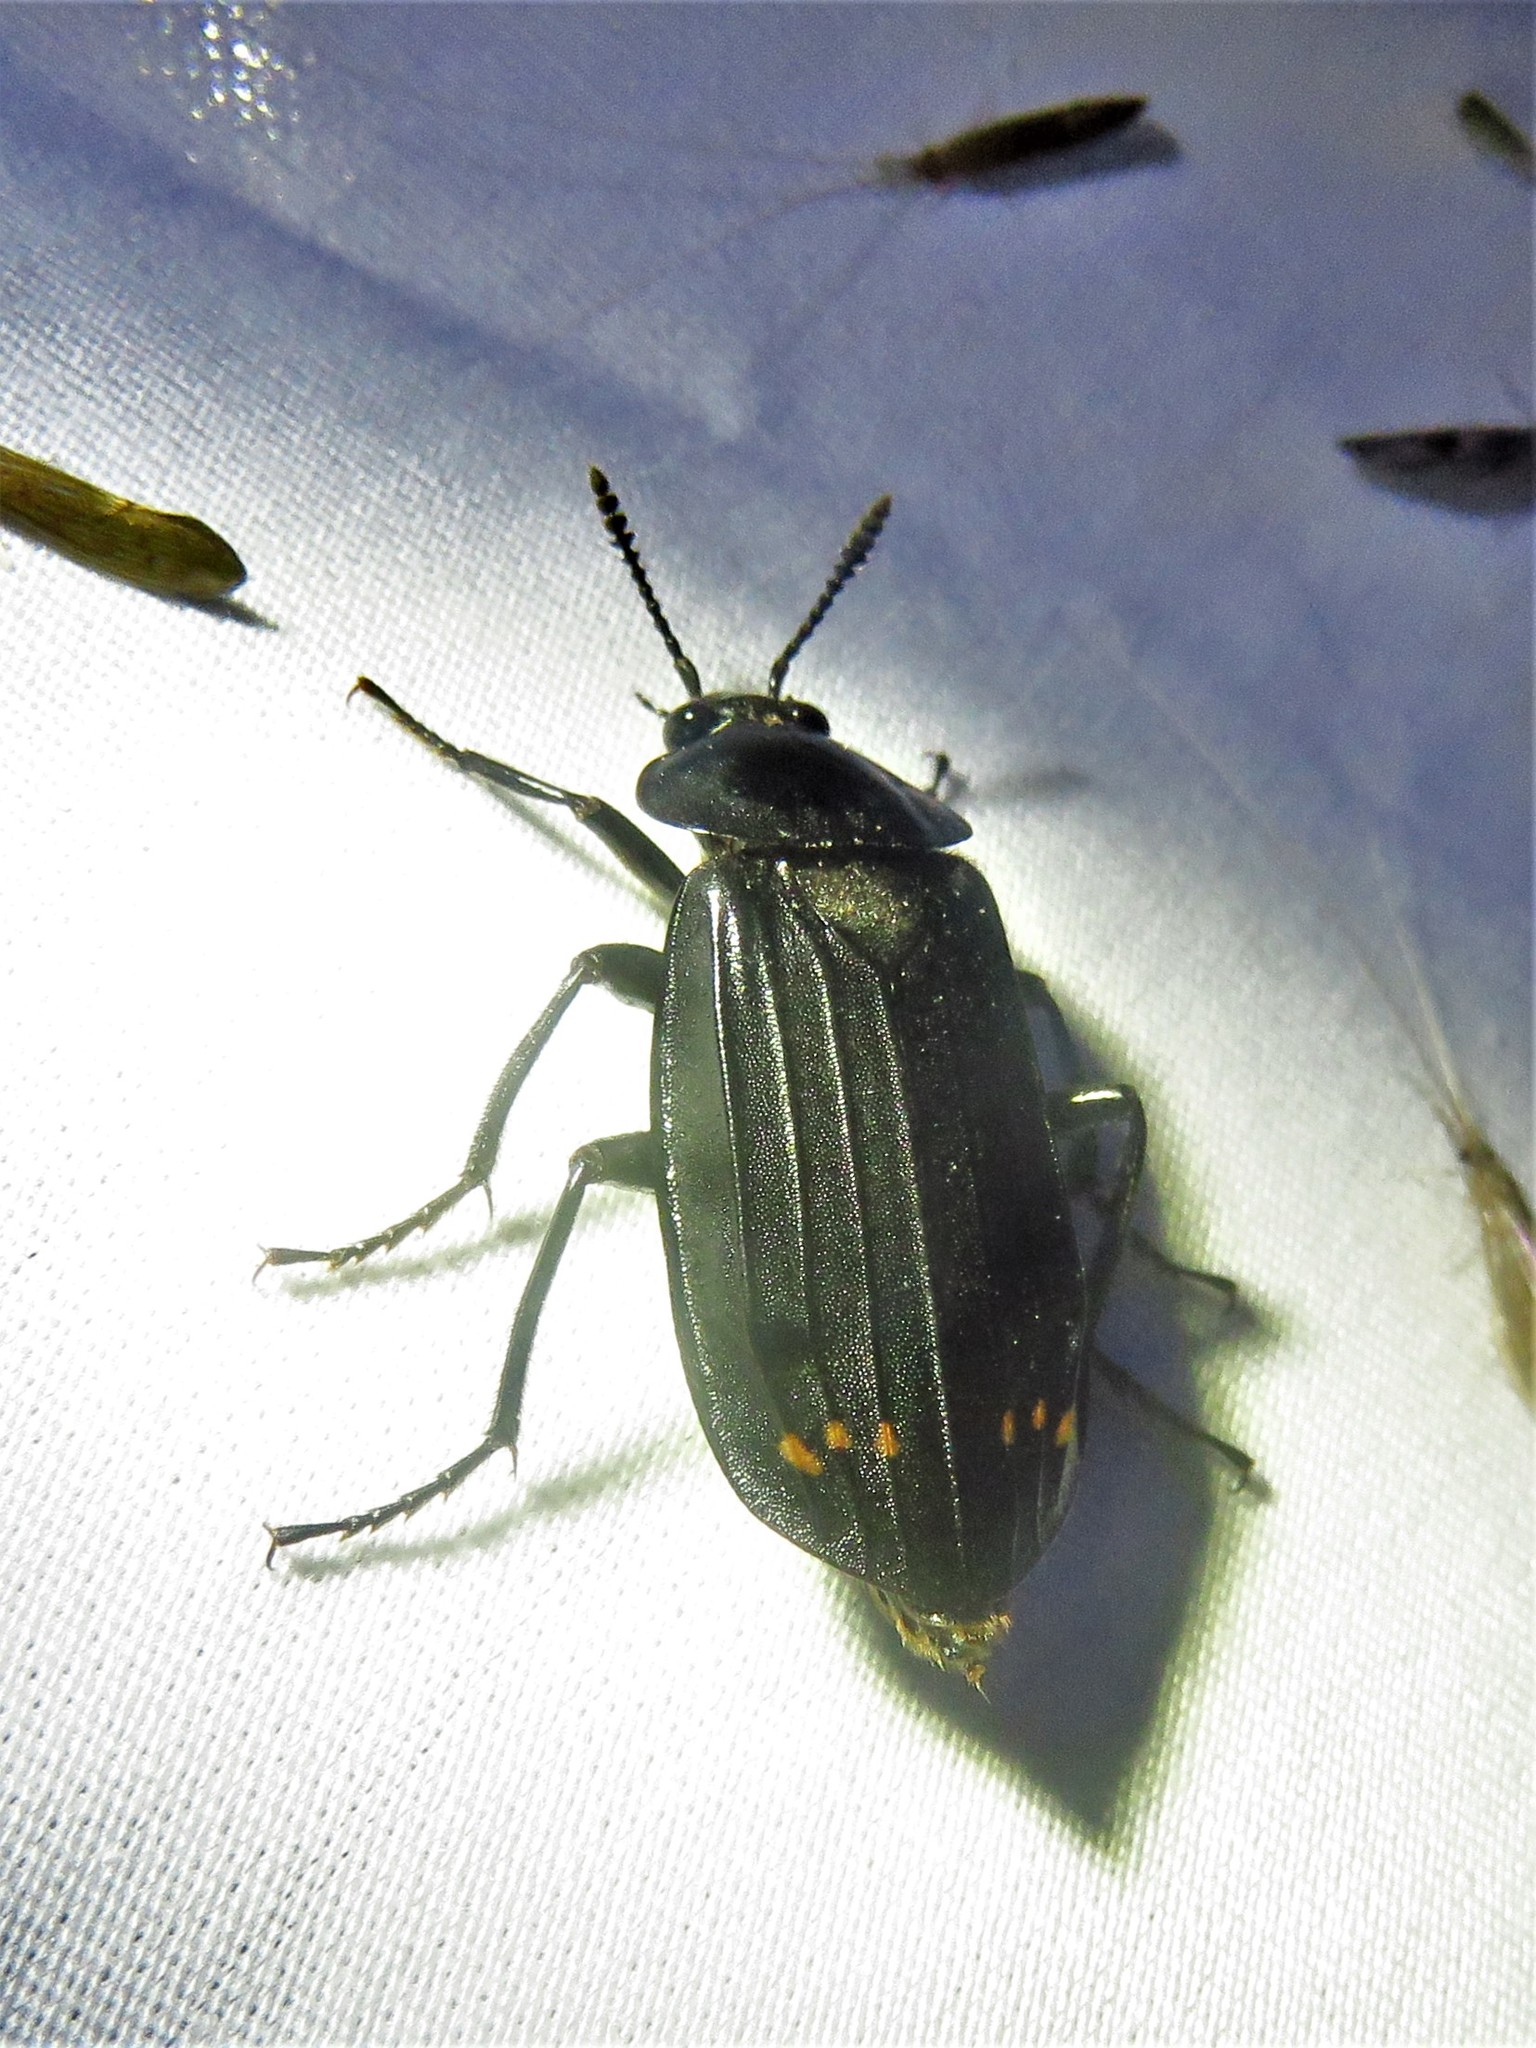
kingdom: Animalia
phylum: Arthropoda
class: Insecta
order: Coleoptera
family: Staphylinidae
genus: Necrodes
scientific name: Necrodes surinamensis
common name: Red-lined carrion beetle
